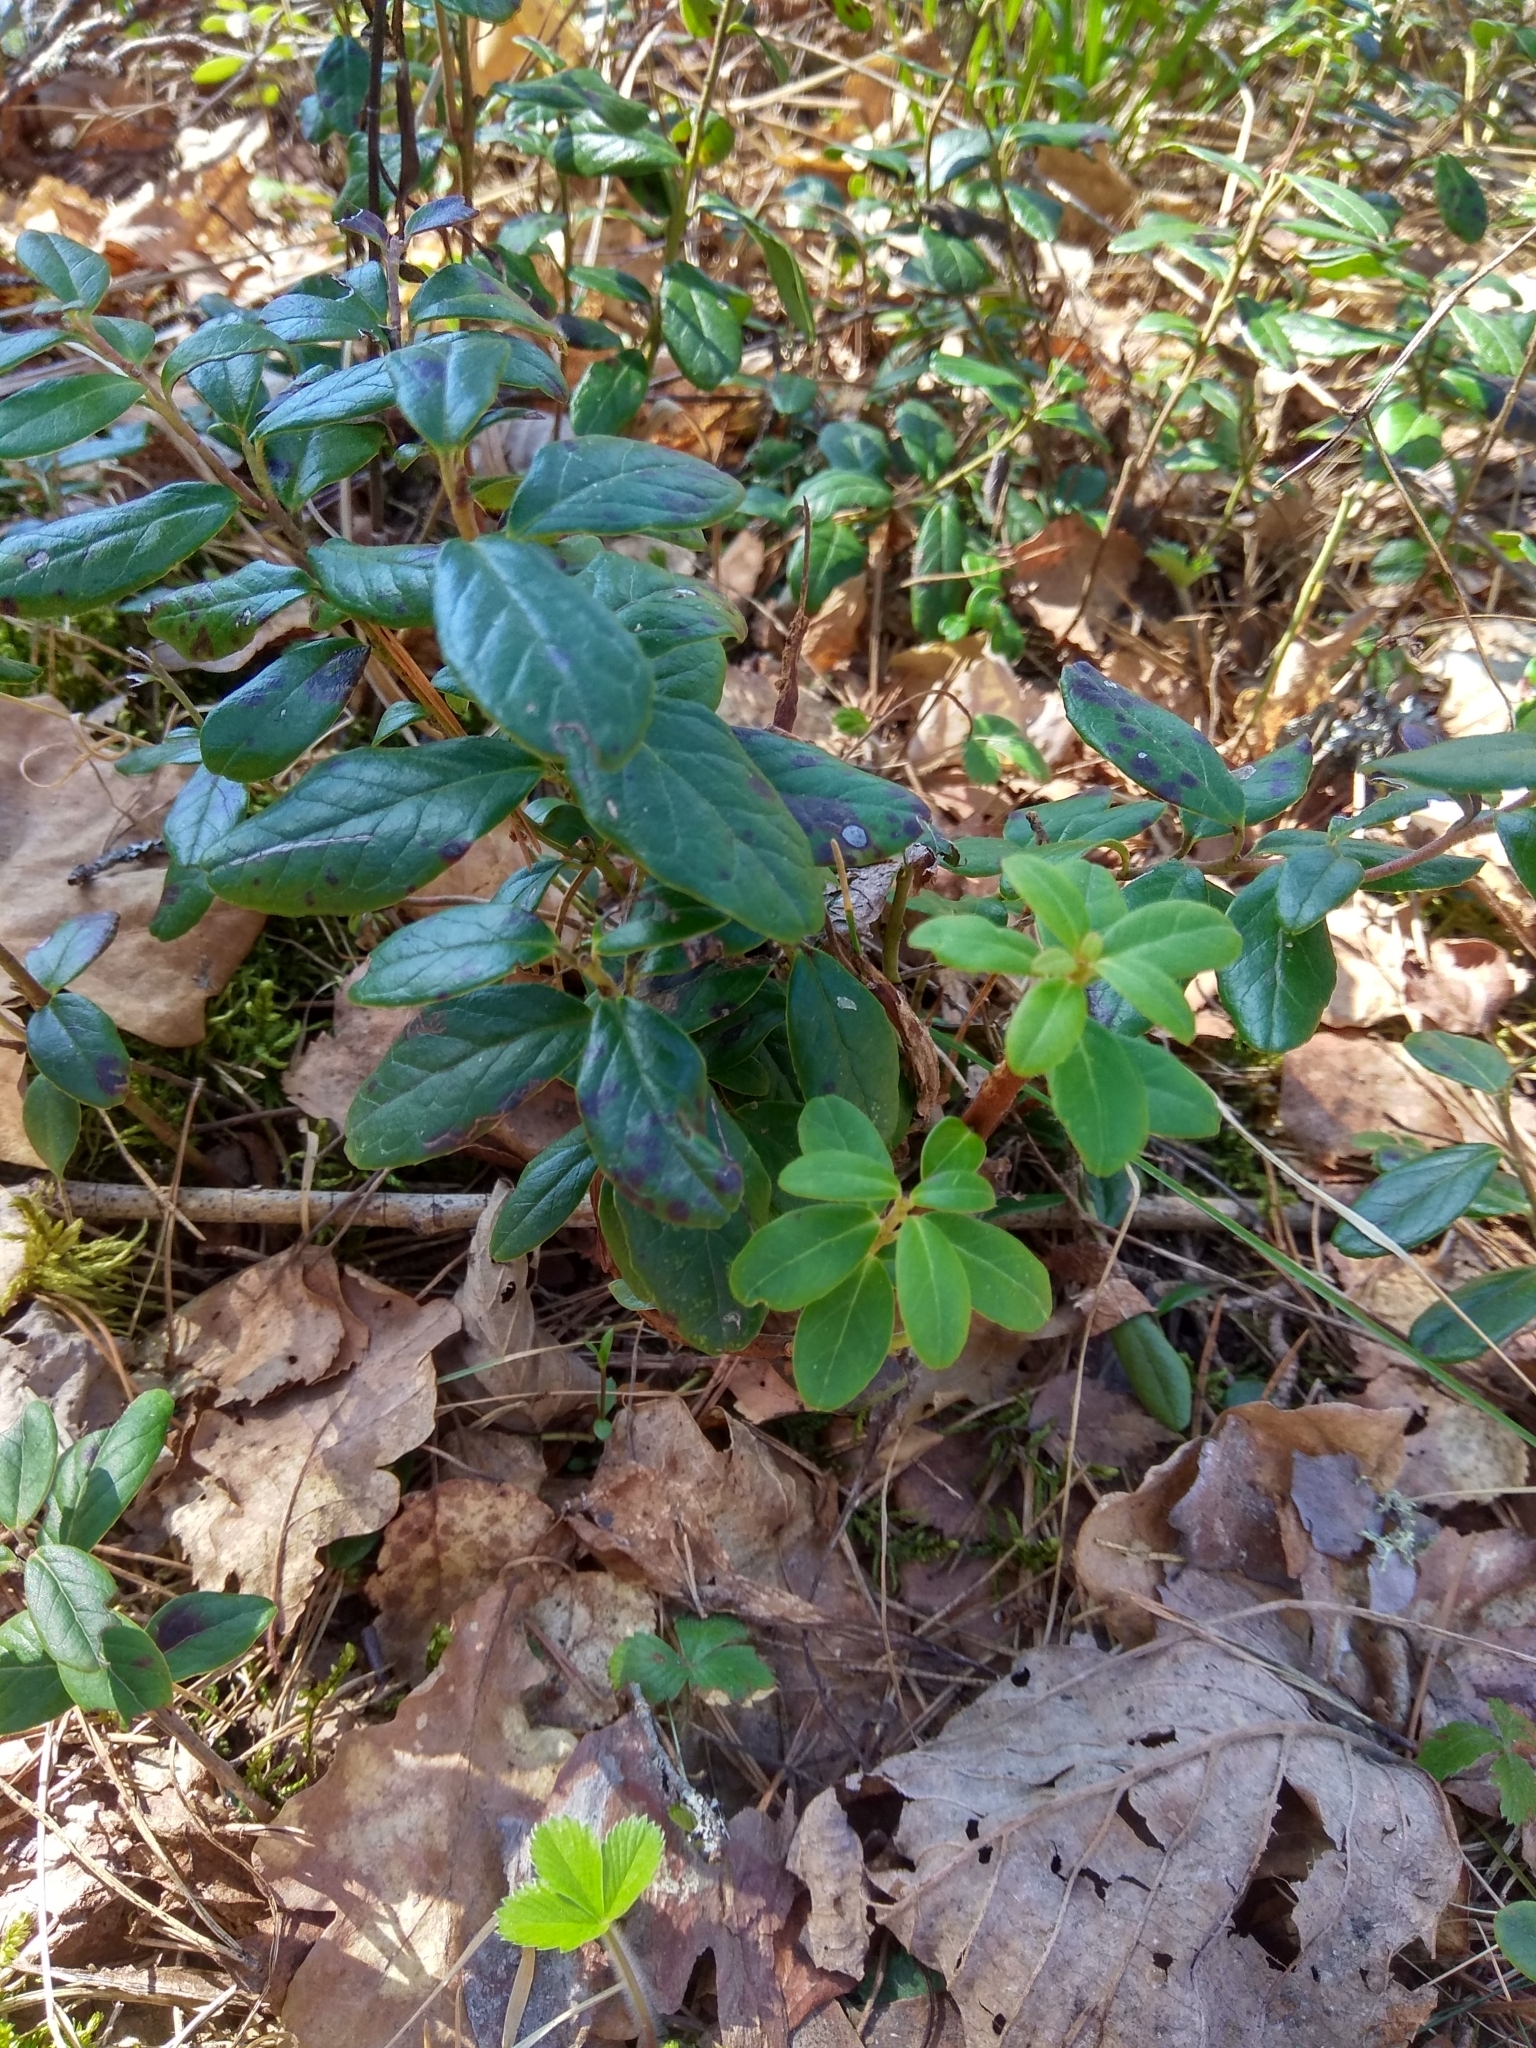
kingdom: Plantae
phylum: Tracheophyta
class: Magnoliopsida
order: Ericales
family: Ericaceae
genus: Vaccinium
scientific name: Vaccinium vitis-idaea
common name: Cowberry
